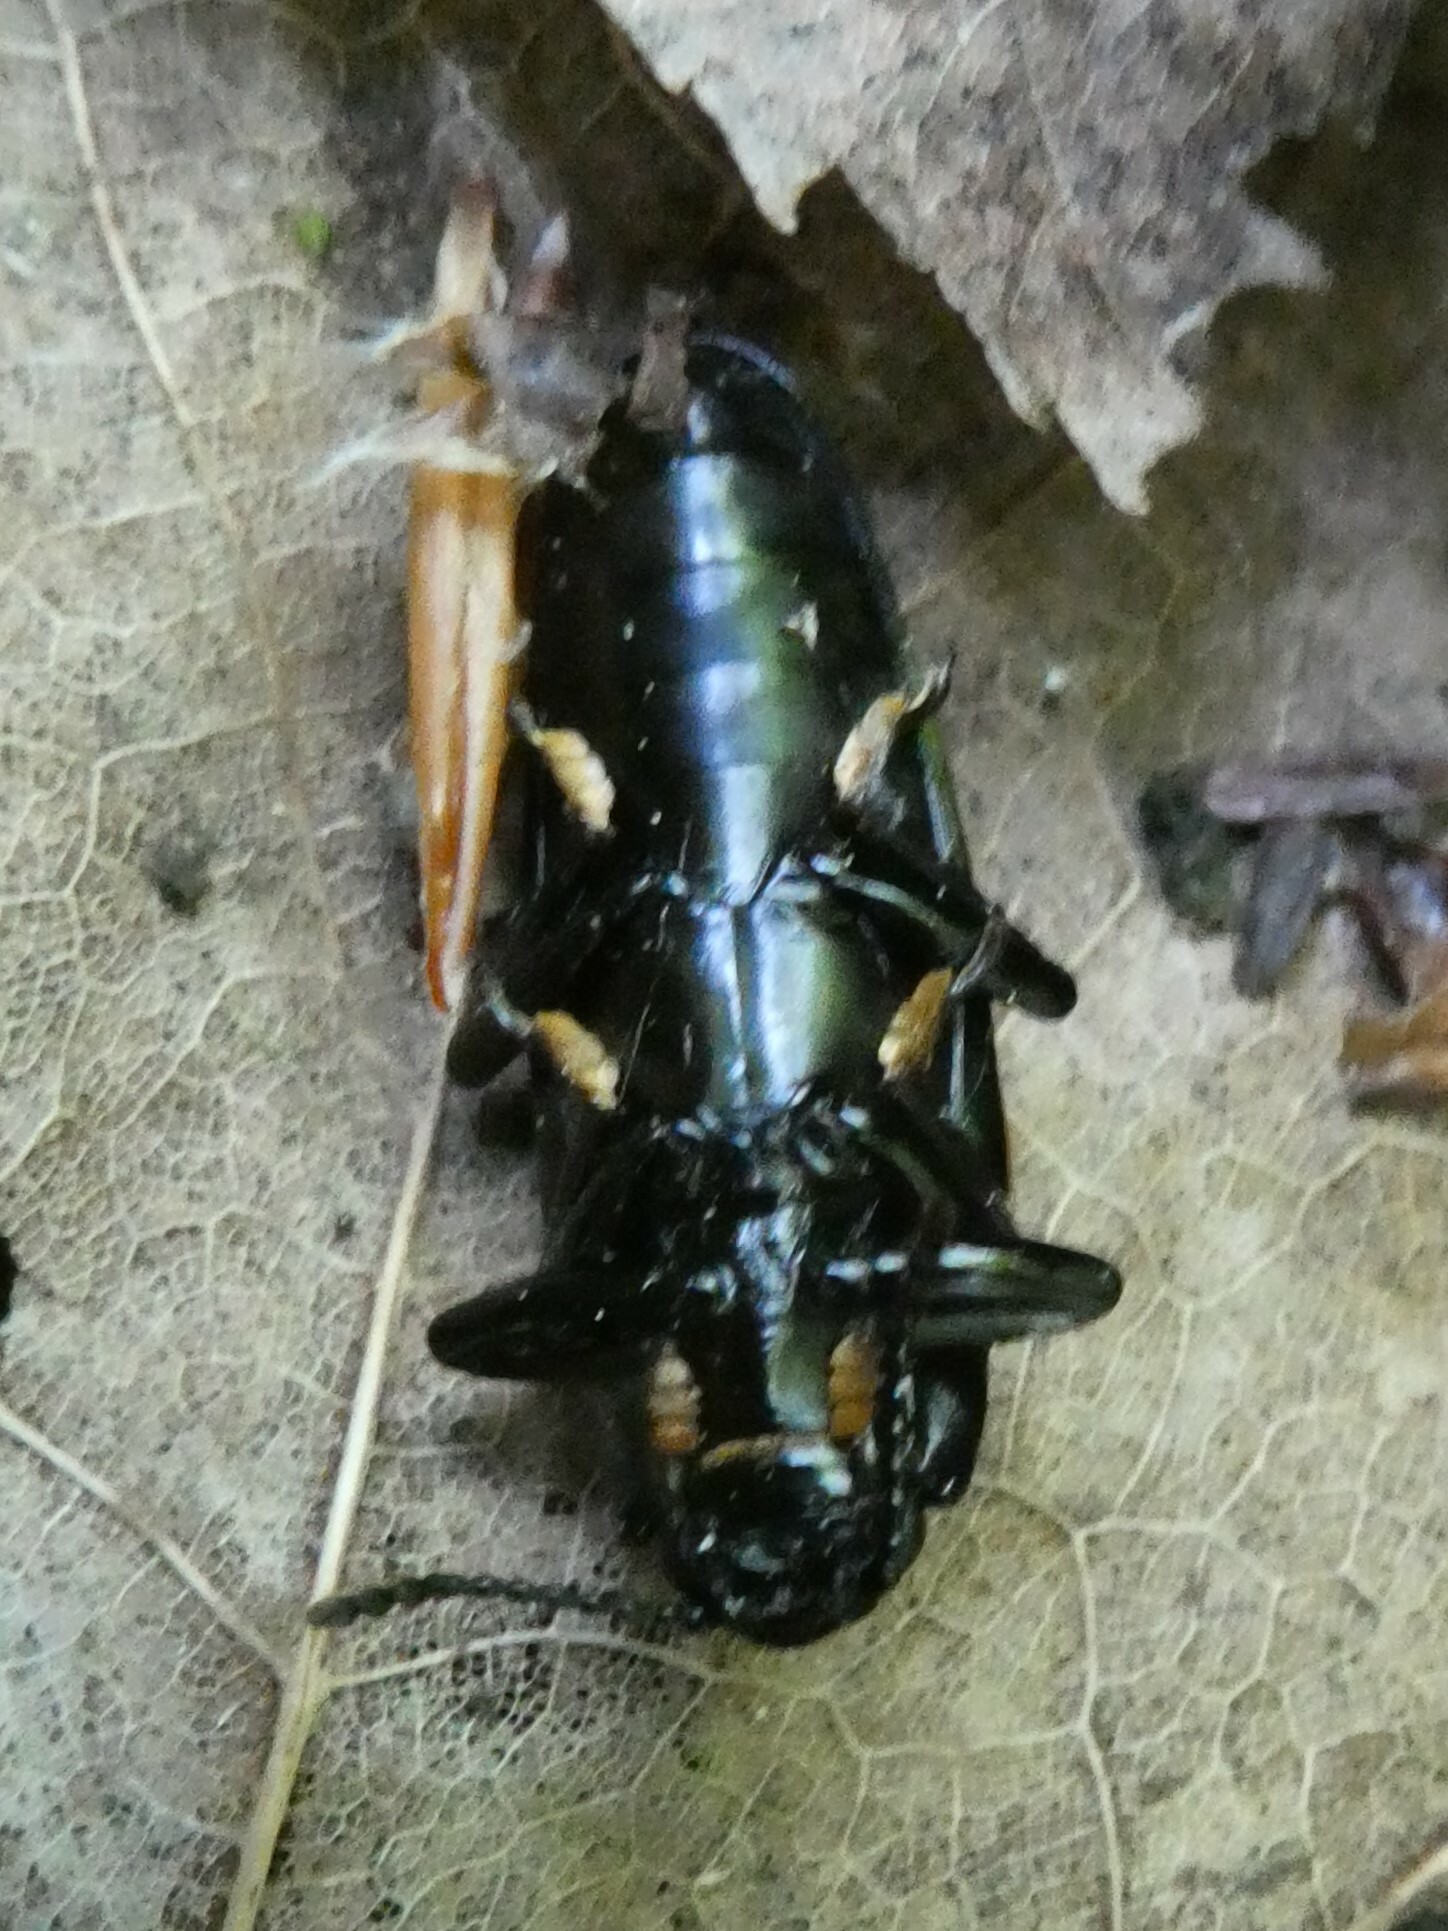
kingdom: Animalia
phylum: Arthropoda
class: Insecta
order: Coleoptera
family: Erotylidae
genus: Megalodacne
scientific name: Megalodacne heros
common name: Pleasing fungus beetle
